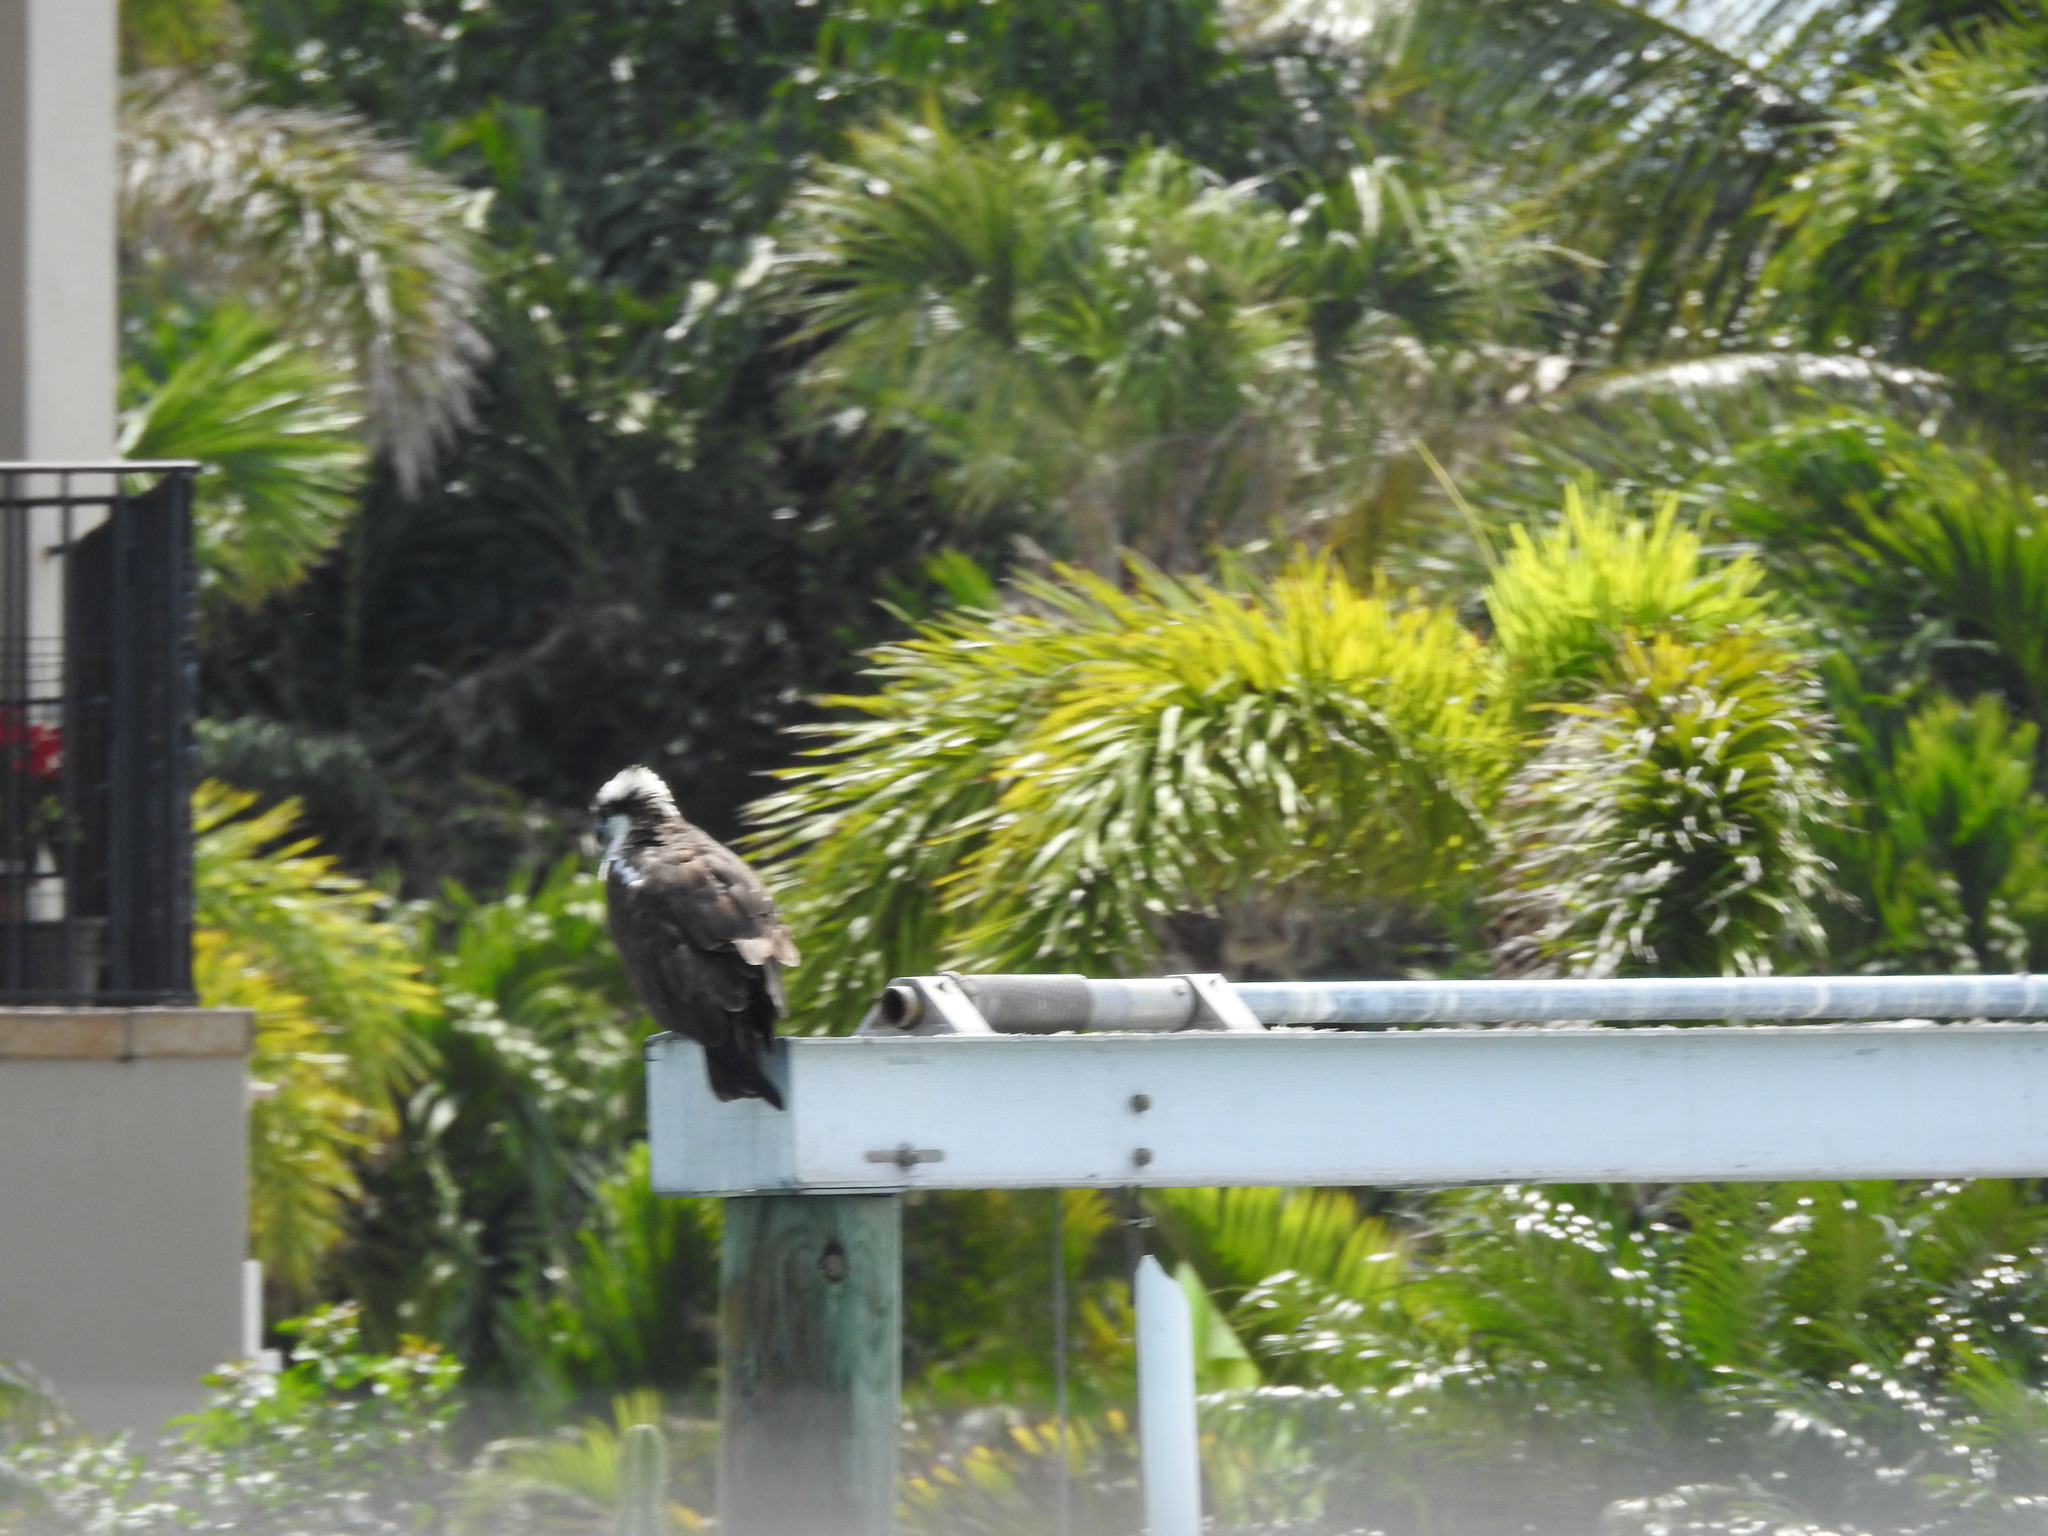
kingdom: Animalia
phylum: Chordata
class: Aves
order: Accipitriformes
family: Pandionidae
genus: Pandion
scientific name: Pandion haliaetus
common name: Osprey
